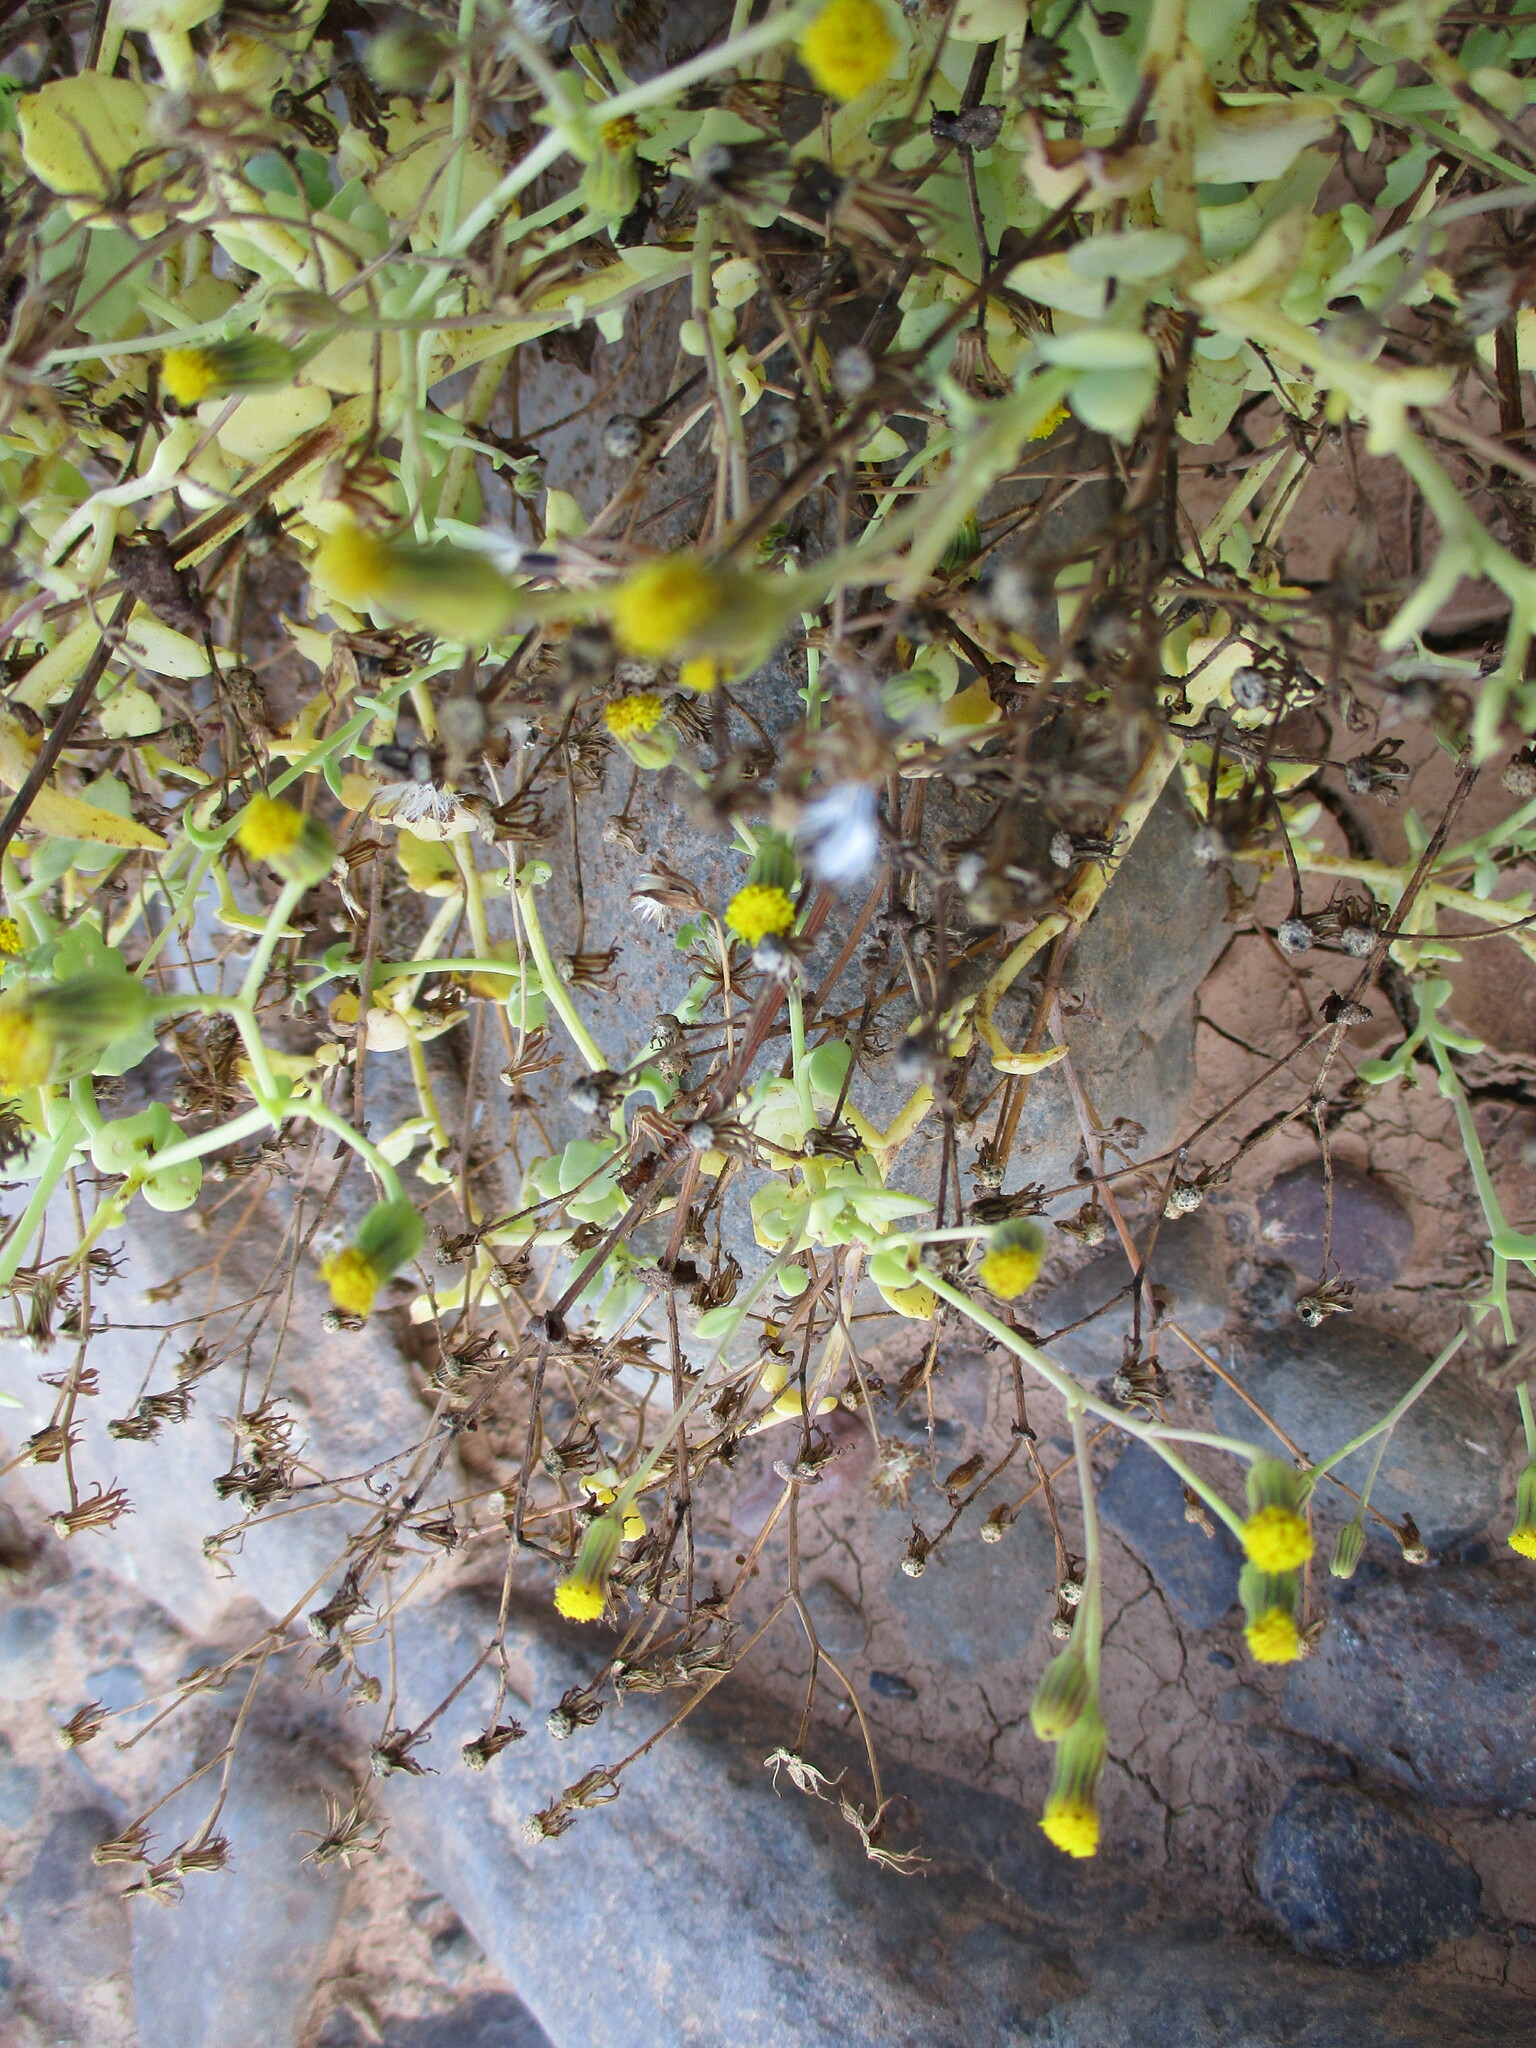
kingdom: Plantae
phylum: Tracheophyta
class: Magnoliopsida
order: Asterales
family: Asteraceae
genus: Senecio
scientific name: Senecio engleranus
